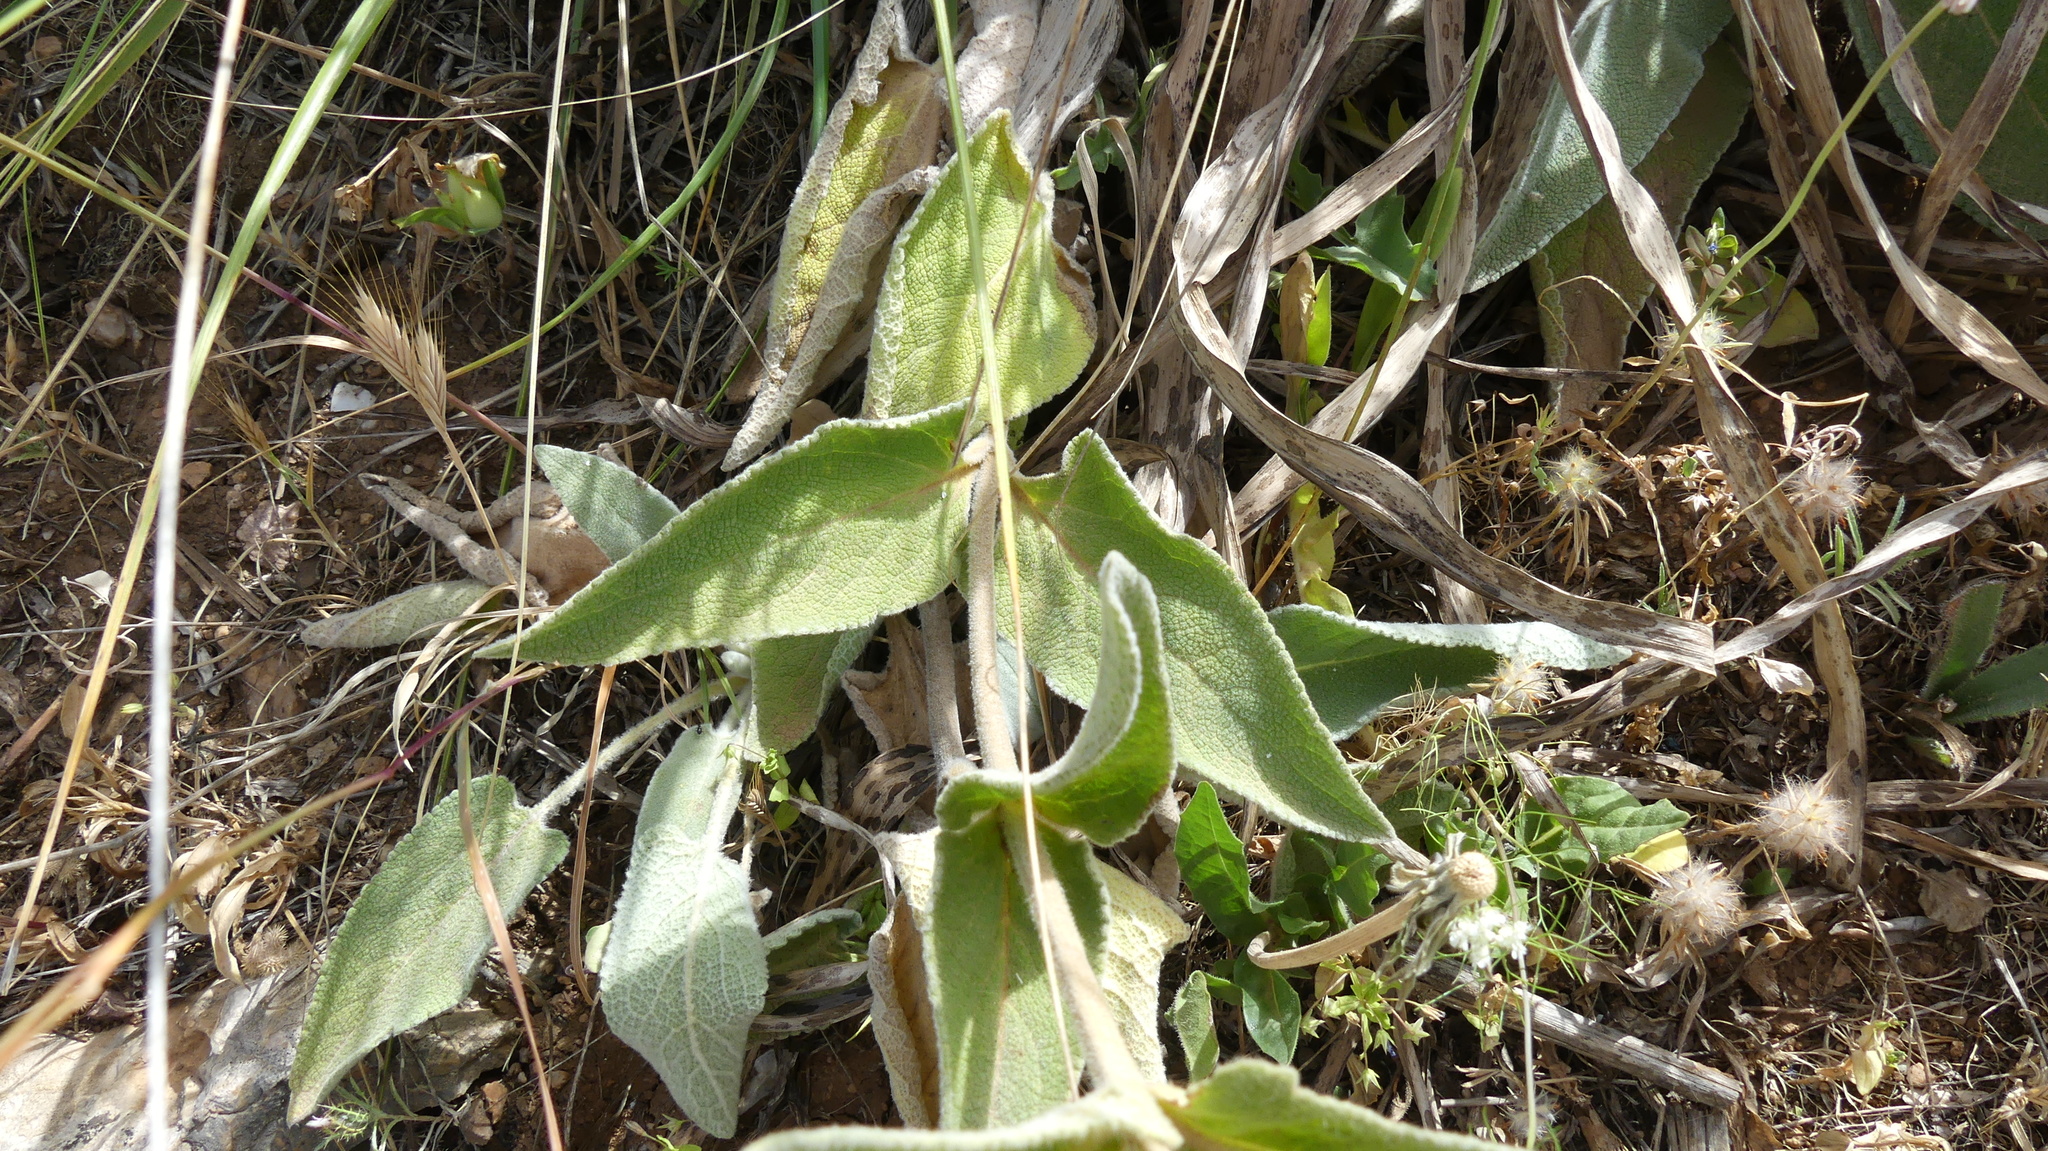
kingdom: Plantae
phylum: Tracheophyta
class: Magnoliopsida
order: Lamiales
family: Lamiaceae
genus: Phlomis
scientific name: Phlomis crinita
